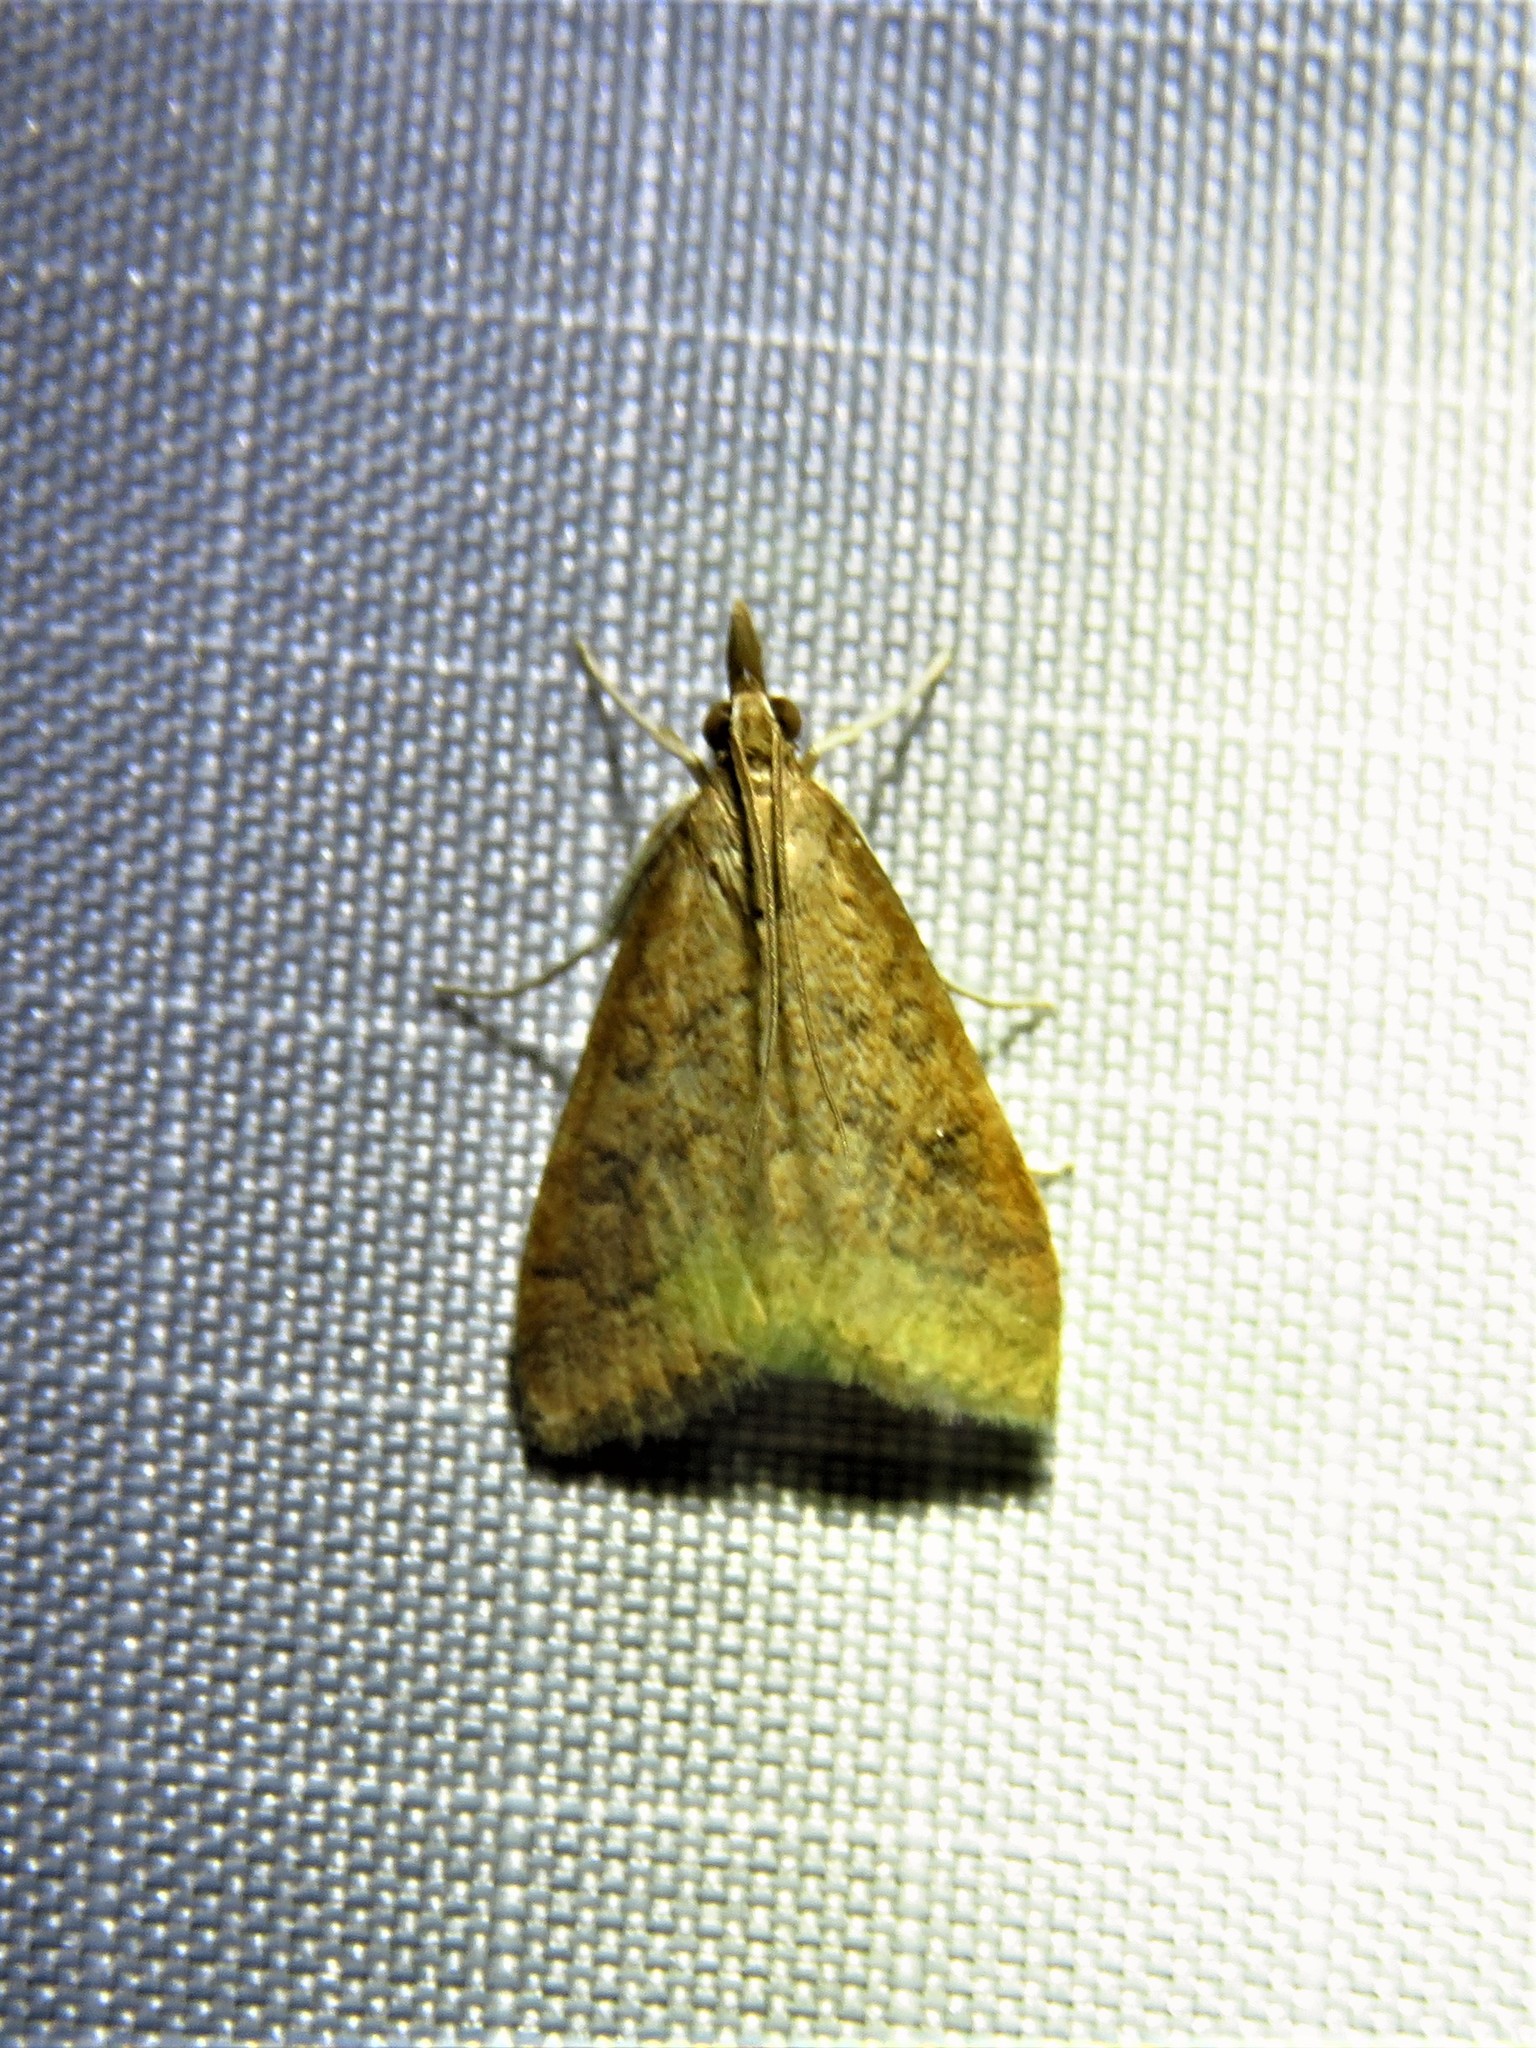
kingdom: Animalia
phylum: Arthropoda
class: Insecta
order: Lepidoptera
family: Crambidae
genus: Udea
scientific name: Udea rubigalis
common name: Celery leaftier moth
